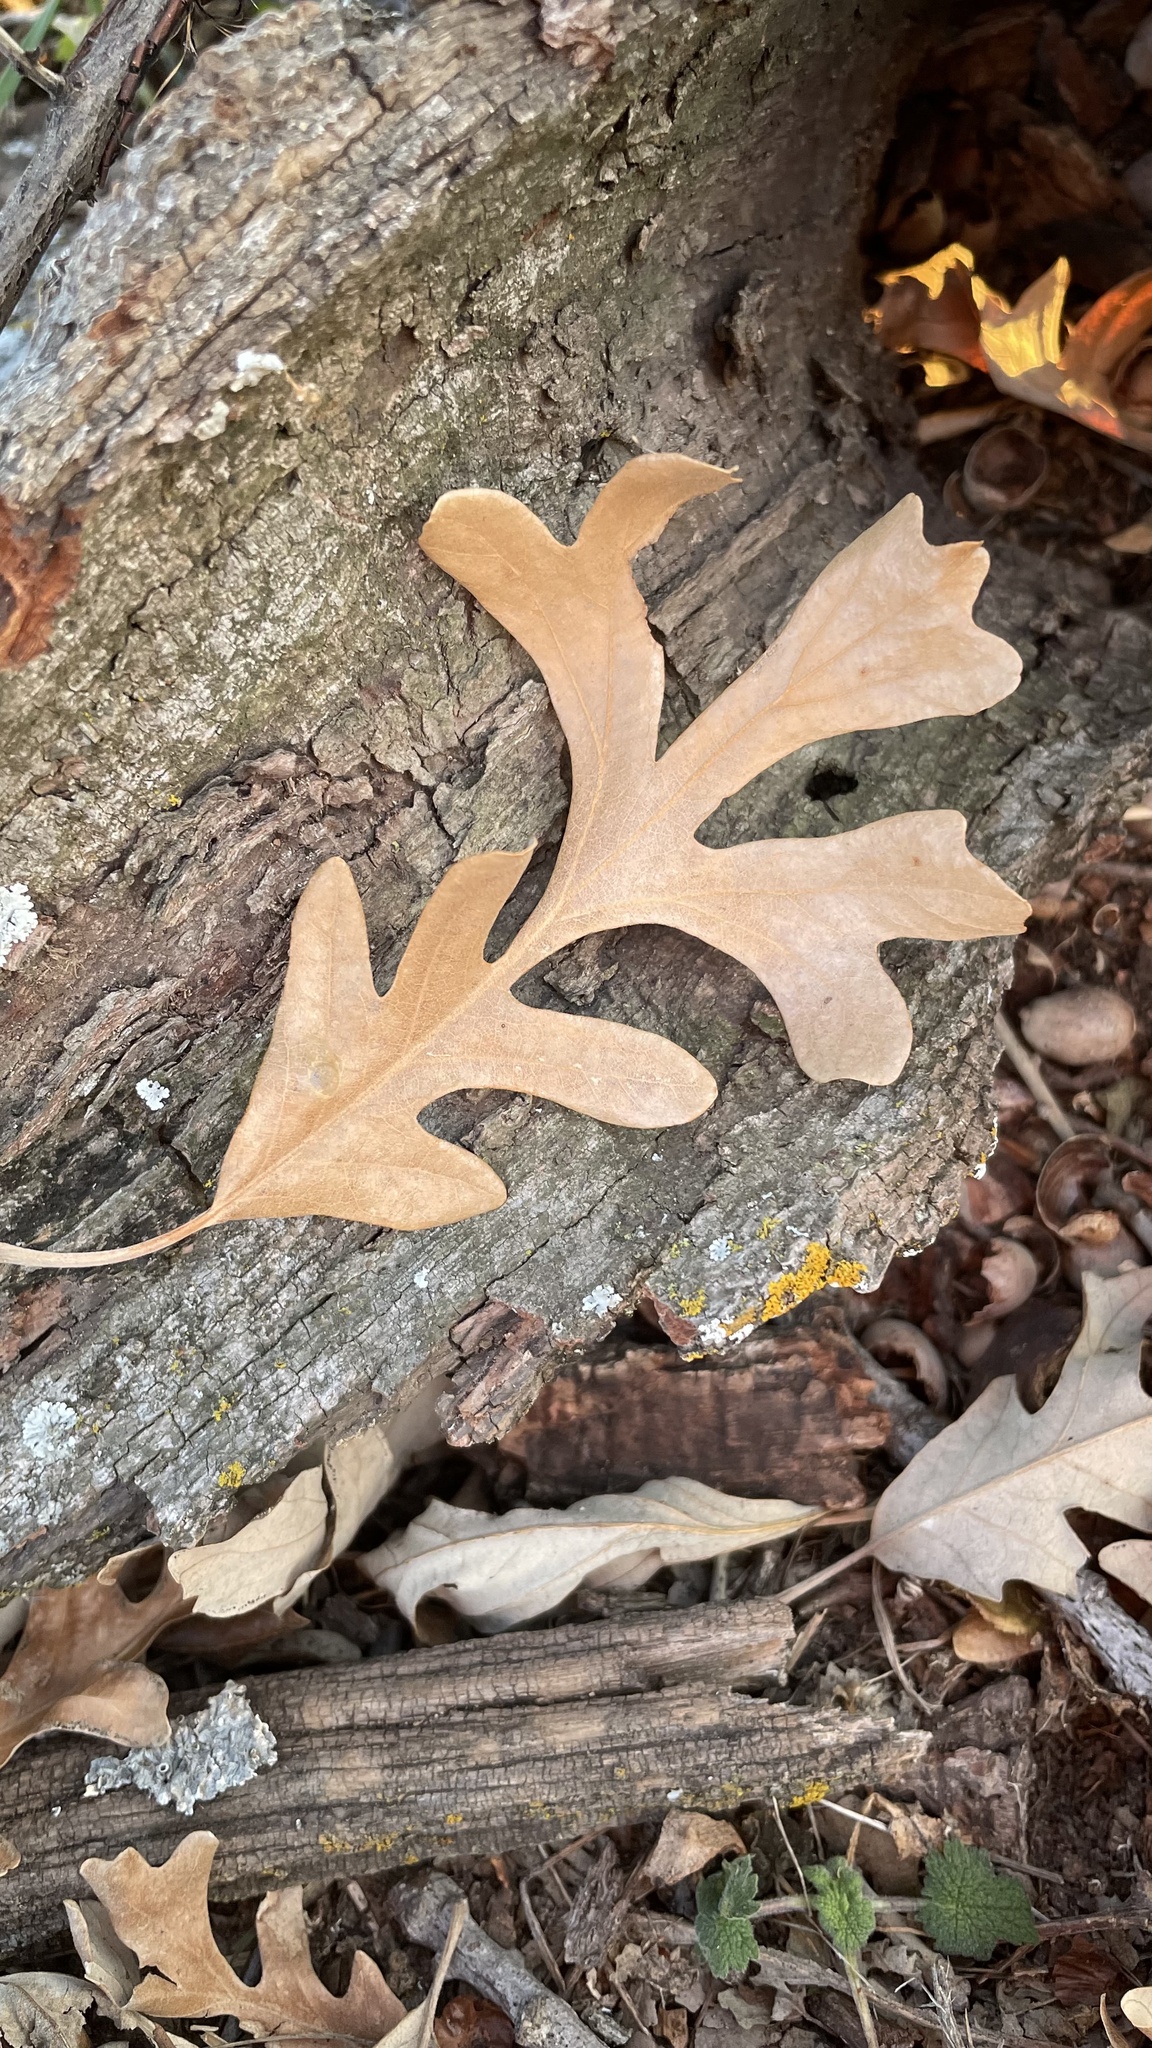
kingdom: Plantae
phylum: Tracheophyta
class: Magnoliopsida
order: Fagales
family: Fagaceae
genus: Quercus
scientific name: Quercus macrocarpa
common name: Bur oak
